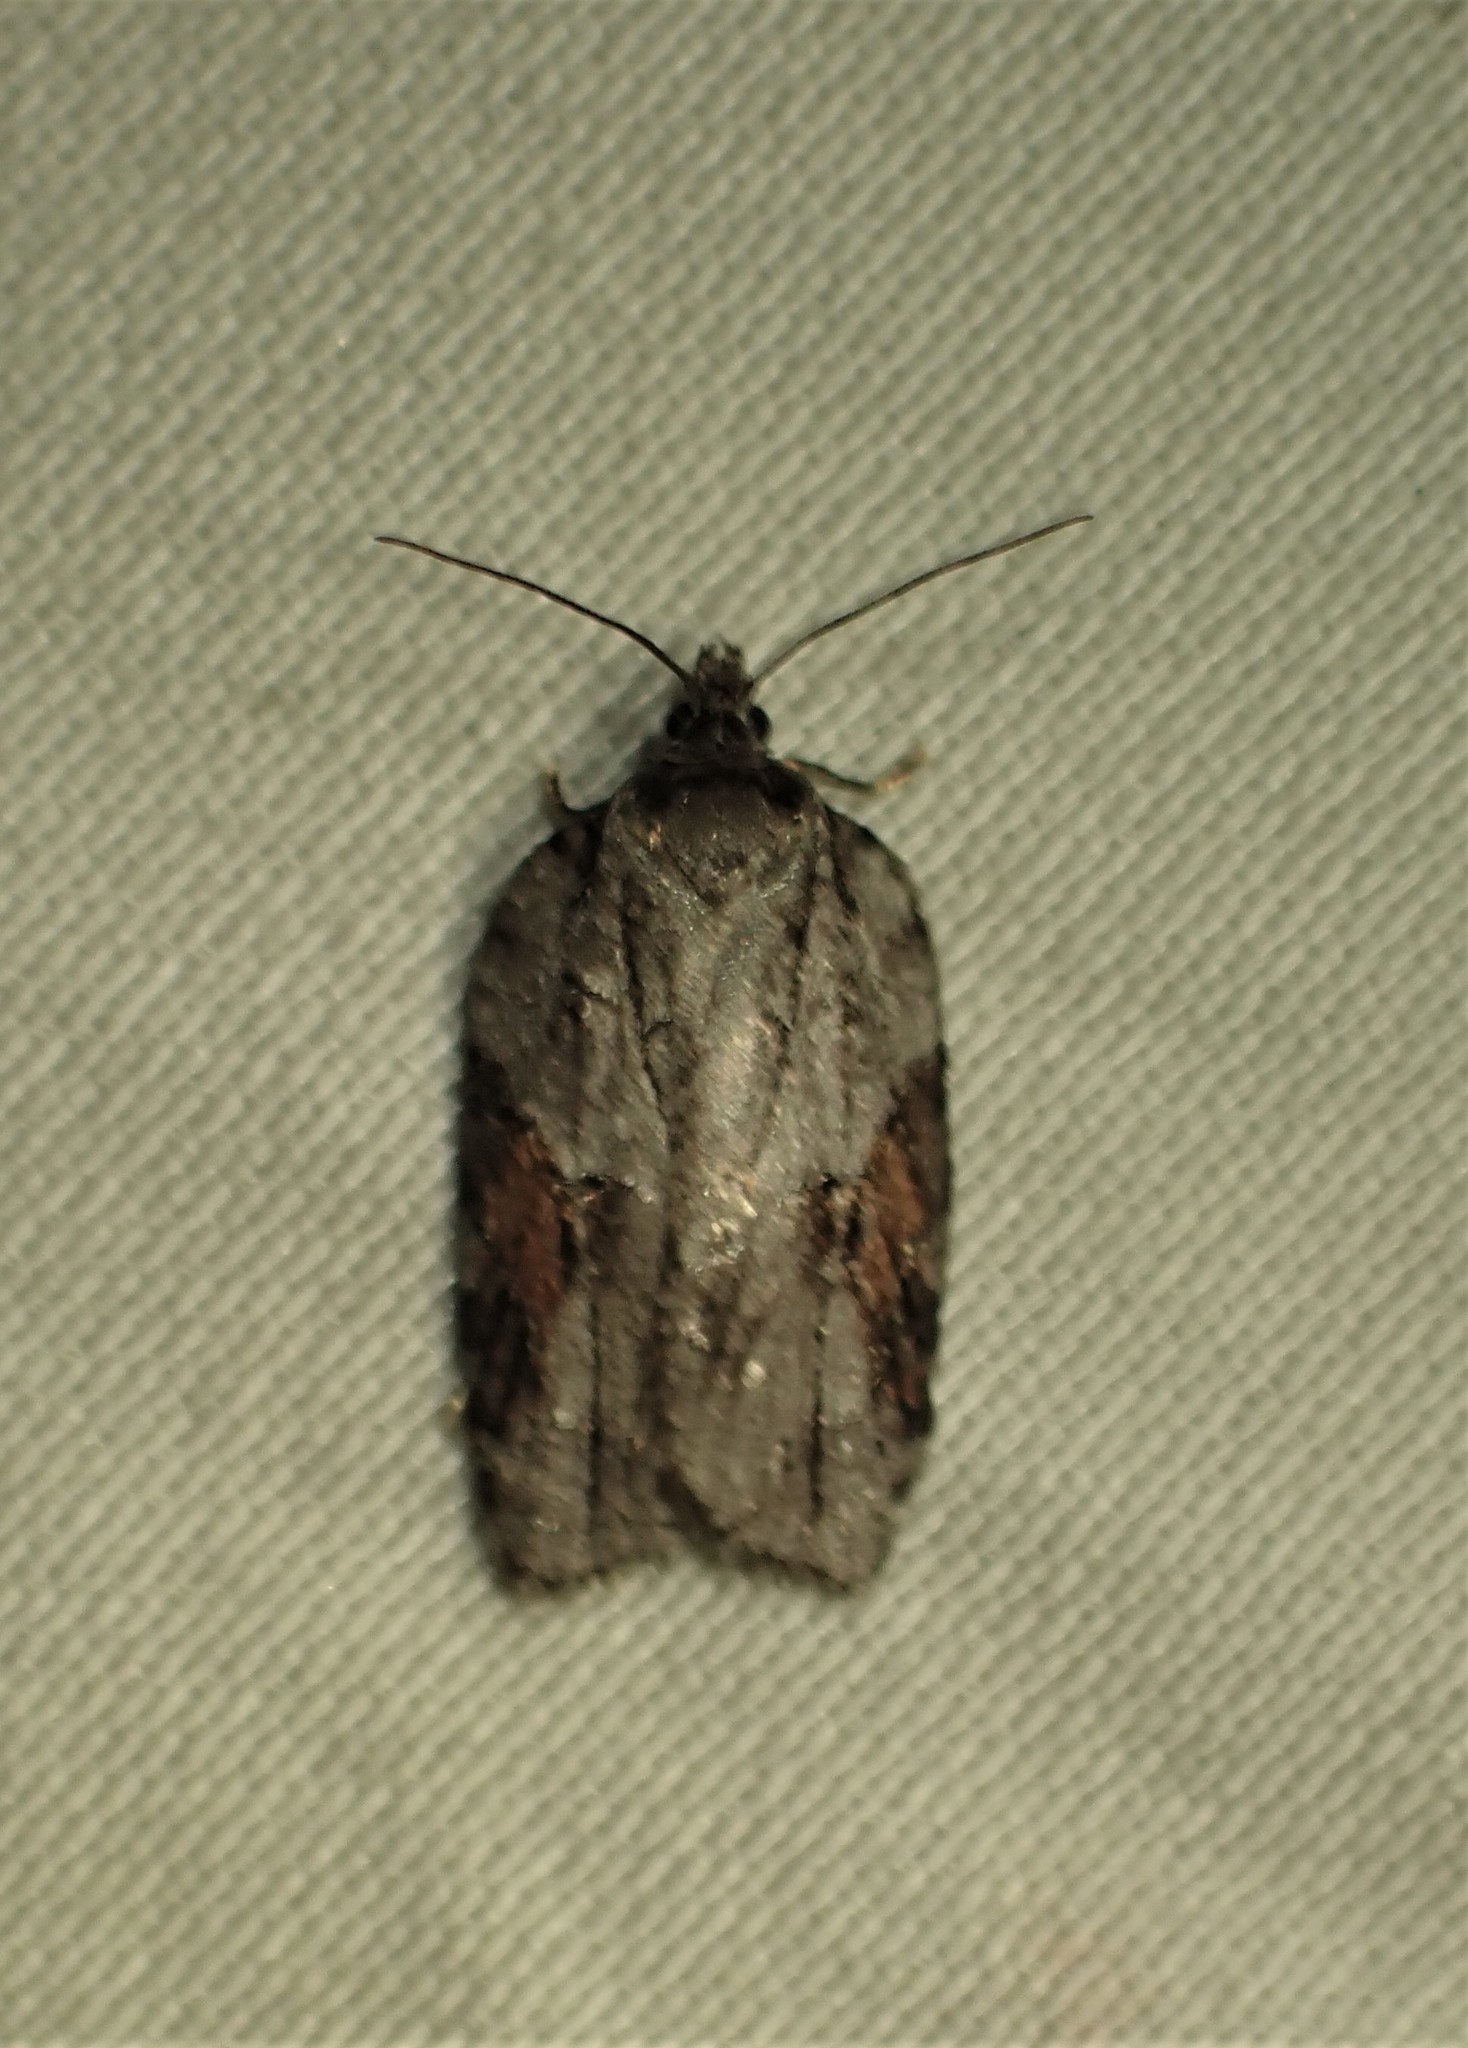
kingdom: Animalia
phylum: Arthropoda
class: Insecta
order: Lepidoptera
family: Tortricidae
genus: Acleris
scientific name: Acleris ptychogrammos
